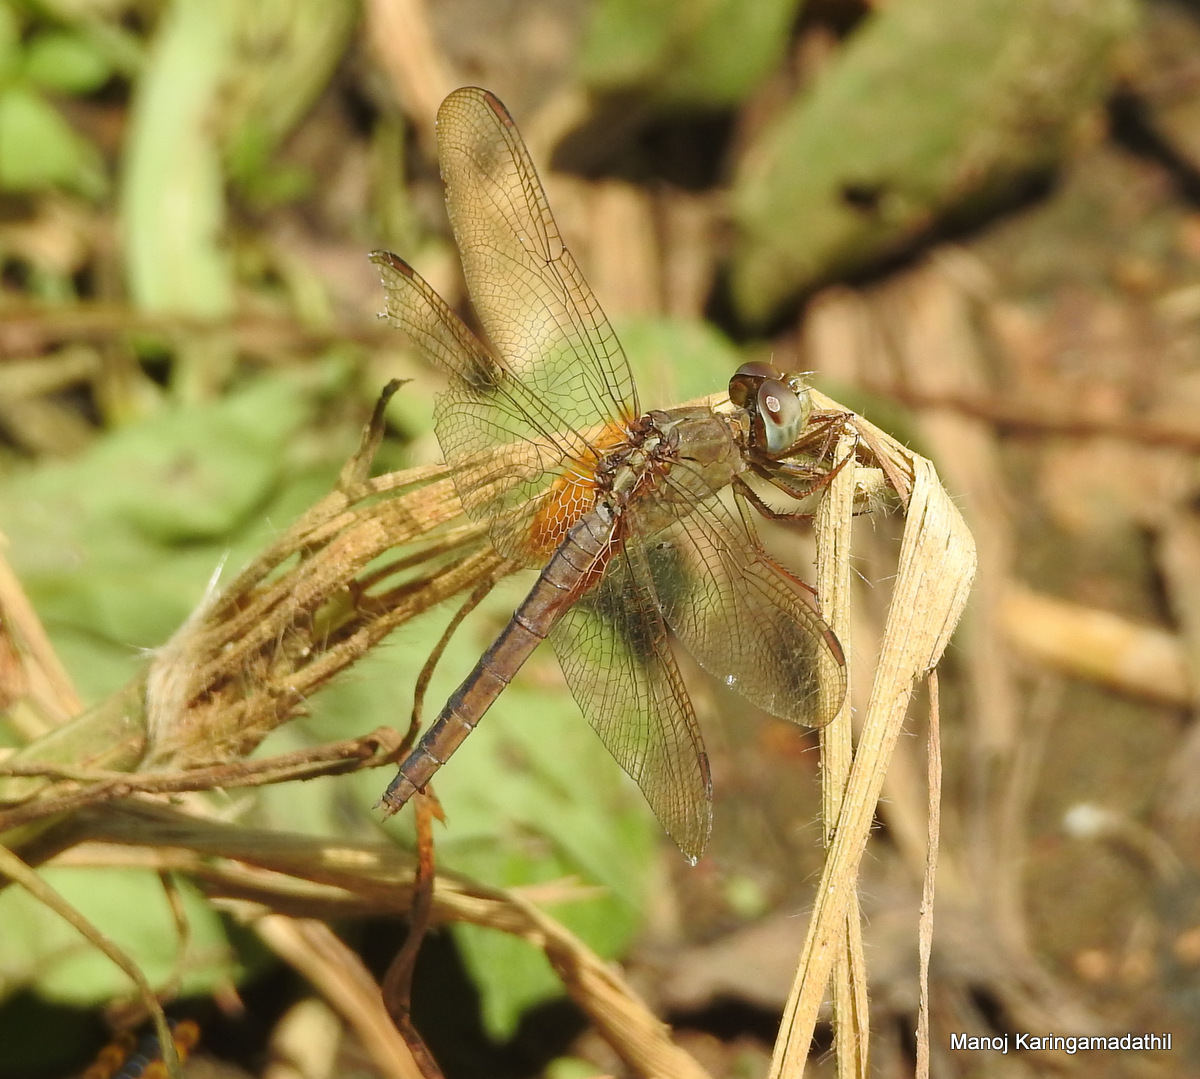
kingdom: Animalia
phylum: Arthropoda
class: Insecta
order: Odonata
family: Libellulidae
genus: Crocothemis
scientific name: Crocothemis servilia
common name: Scarlet skimmer
